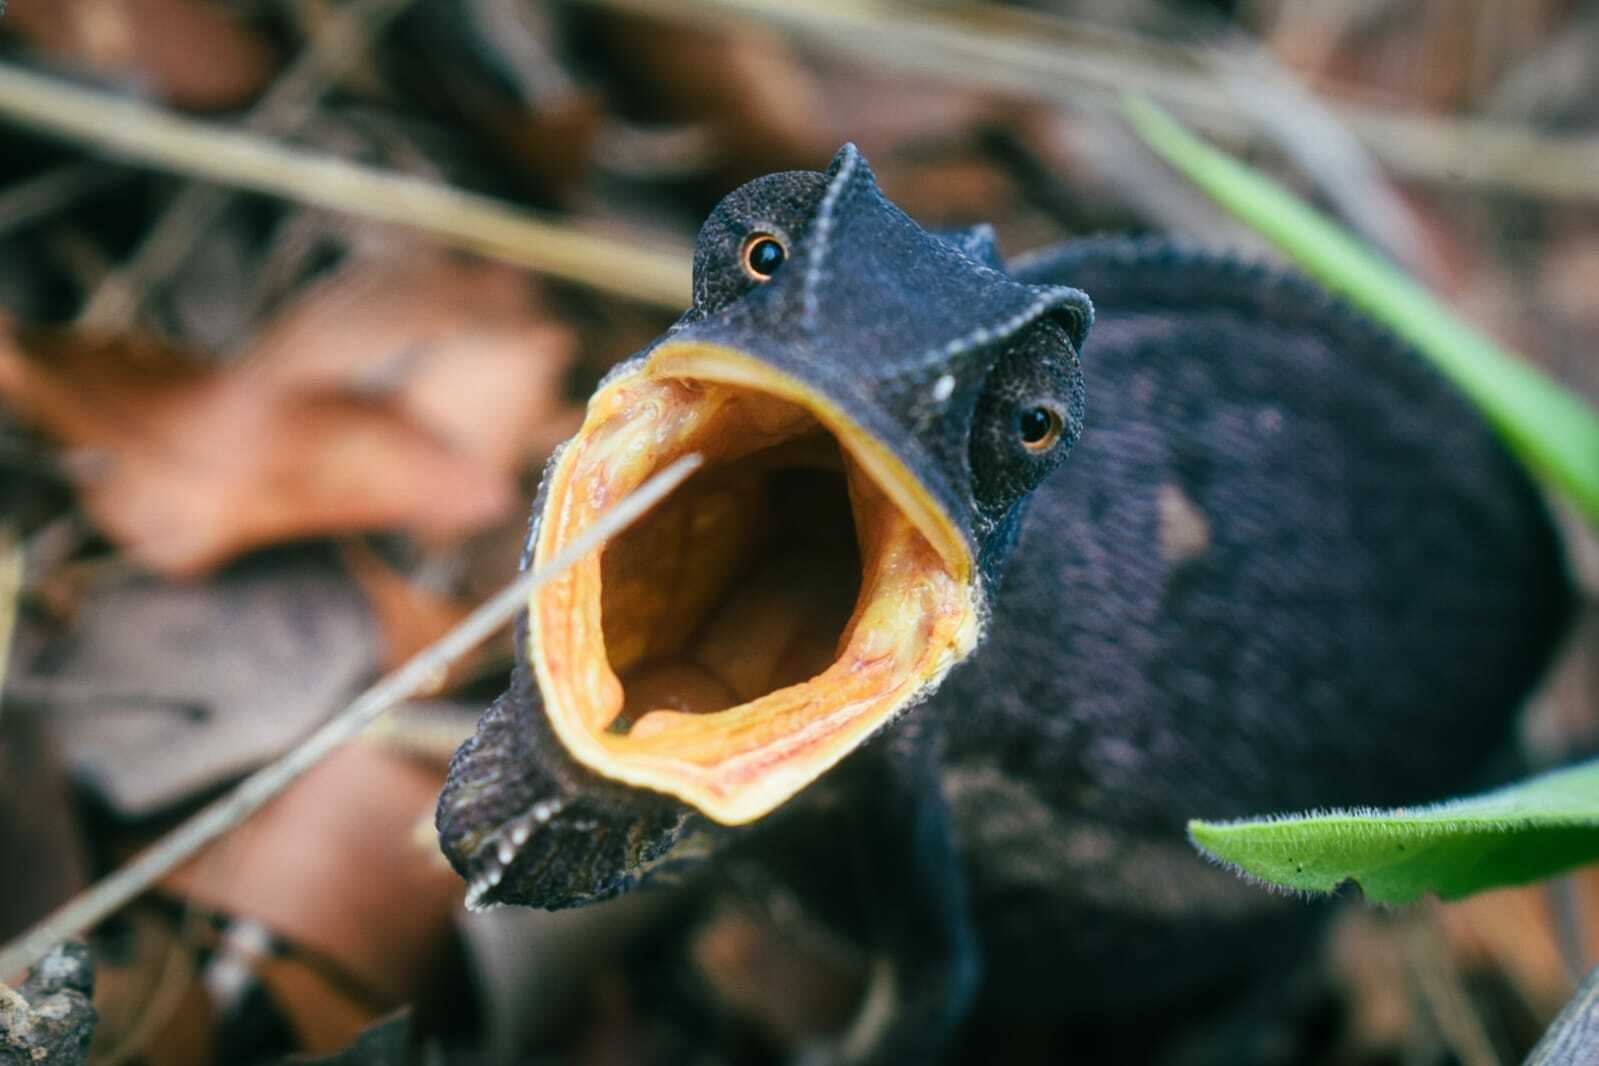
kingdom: Animalia
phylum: Chordata
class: Squamata
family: Chamaeleonidae
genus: Chamaeleo
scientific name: Chamaeleo dilepis
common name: Flapneck chameleon
